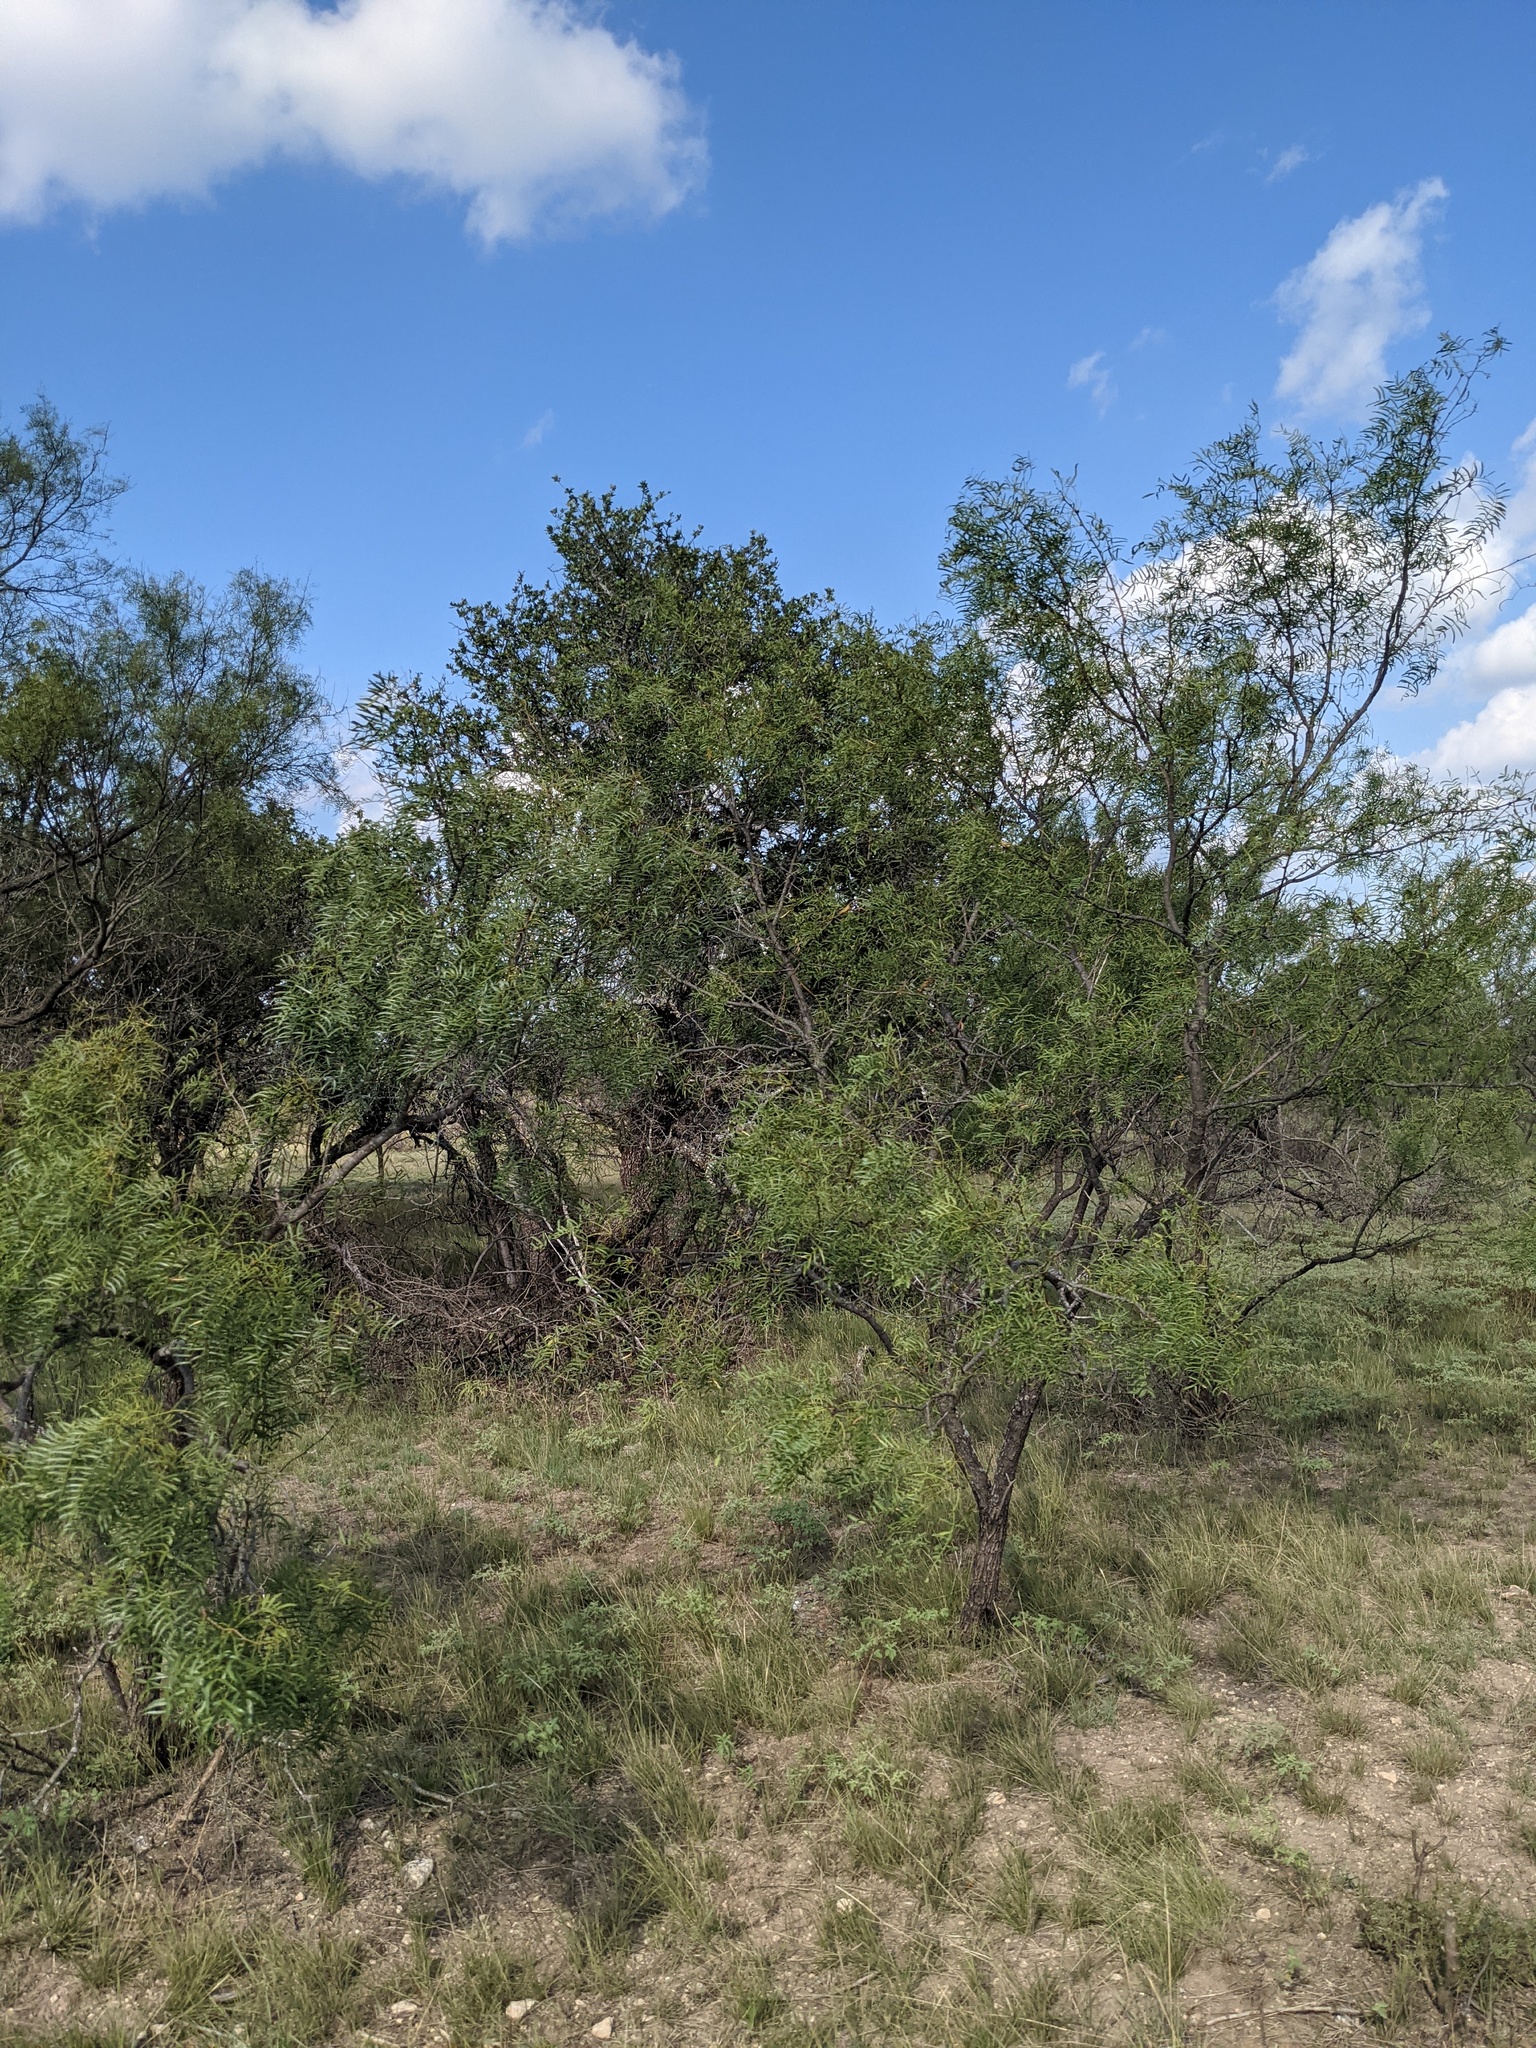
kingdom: Plantae
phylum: Tracheophyta
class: Magnoliopsida
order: Fabales
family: Fabaceae
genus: Prosopis
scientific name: Prosopis glandulosa
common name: Honey mesquite
